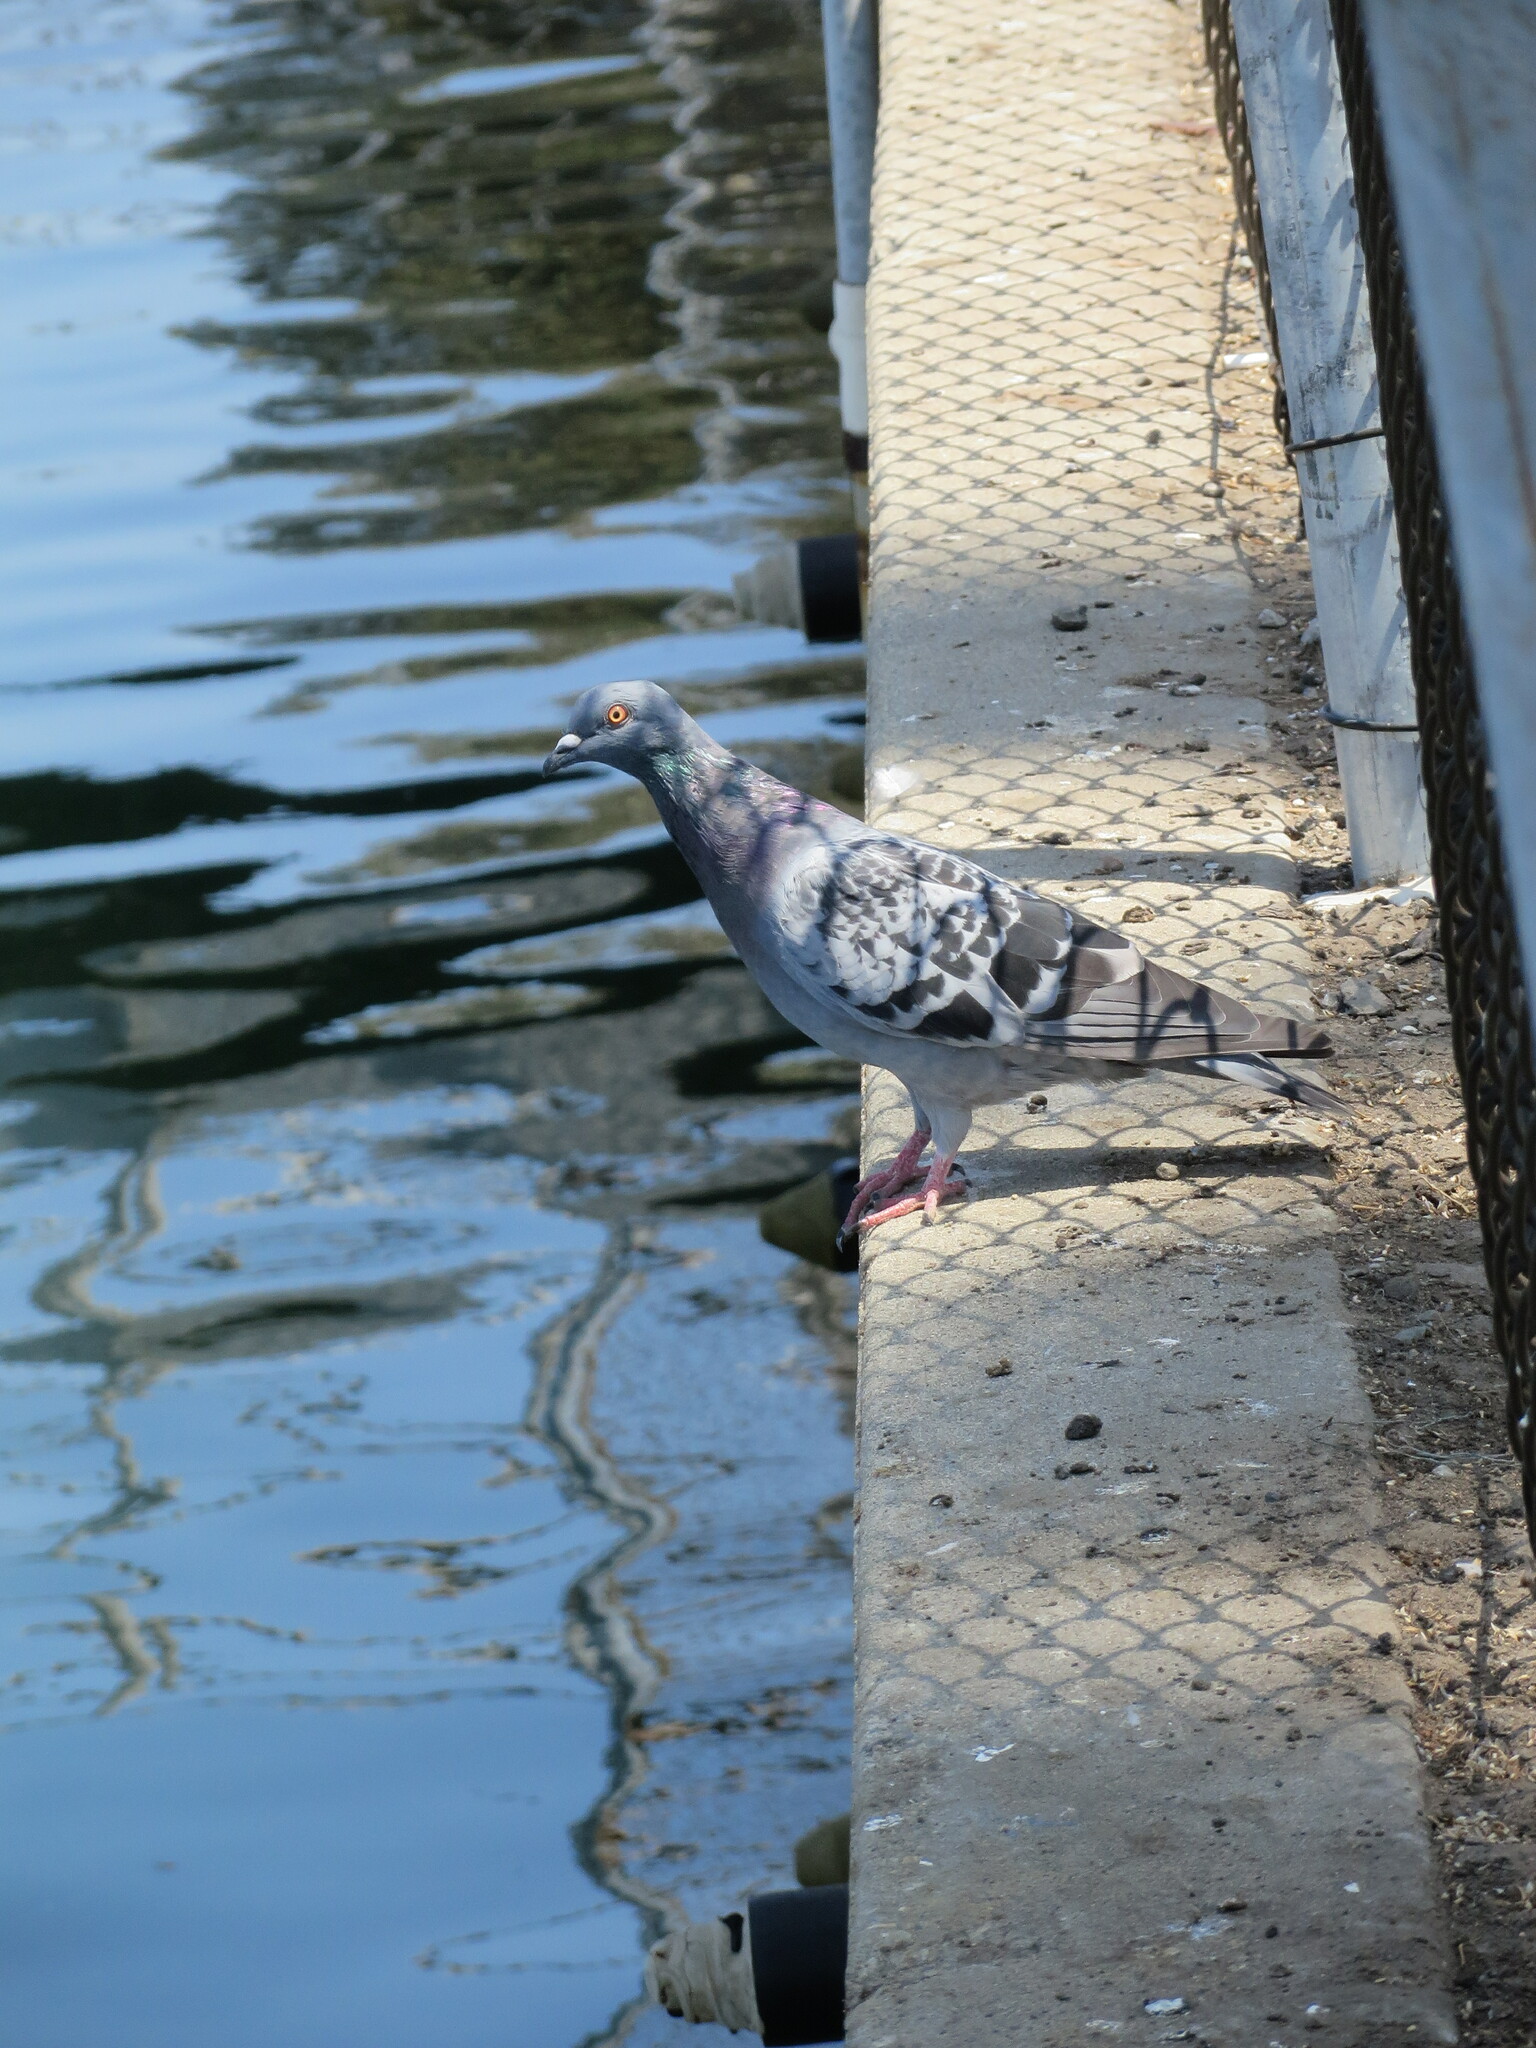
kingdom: Animalia
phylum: Chordata
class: Aves
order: Columbiformes
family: Columbidae
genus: Columba
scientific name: Columba livia
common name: Rock pigeon
